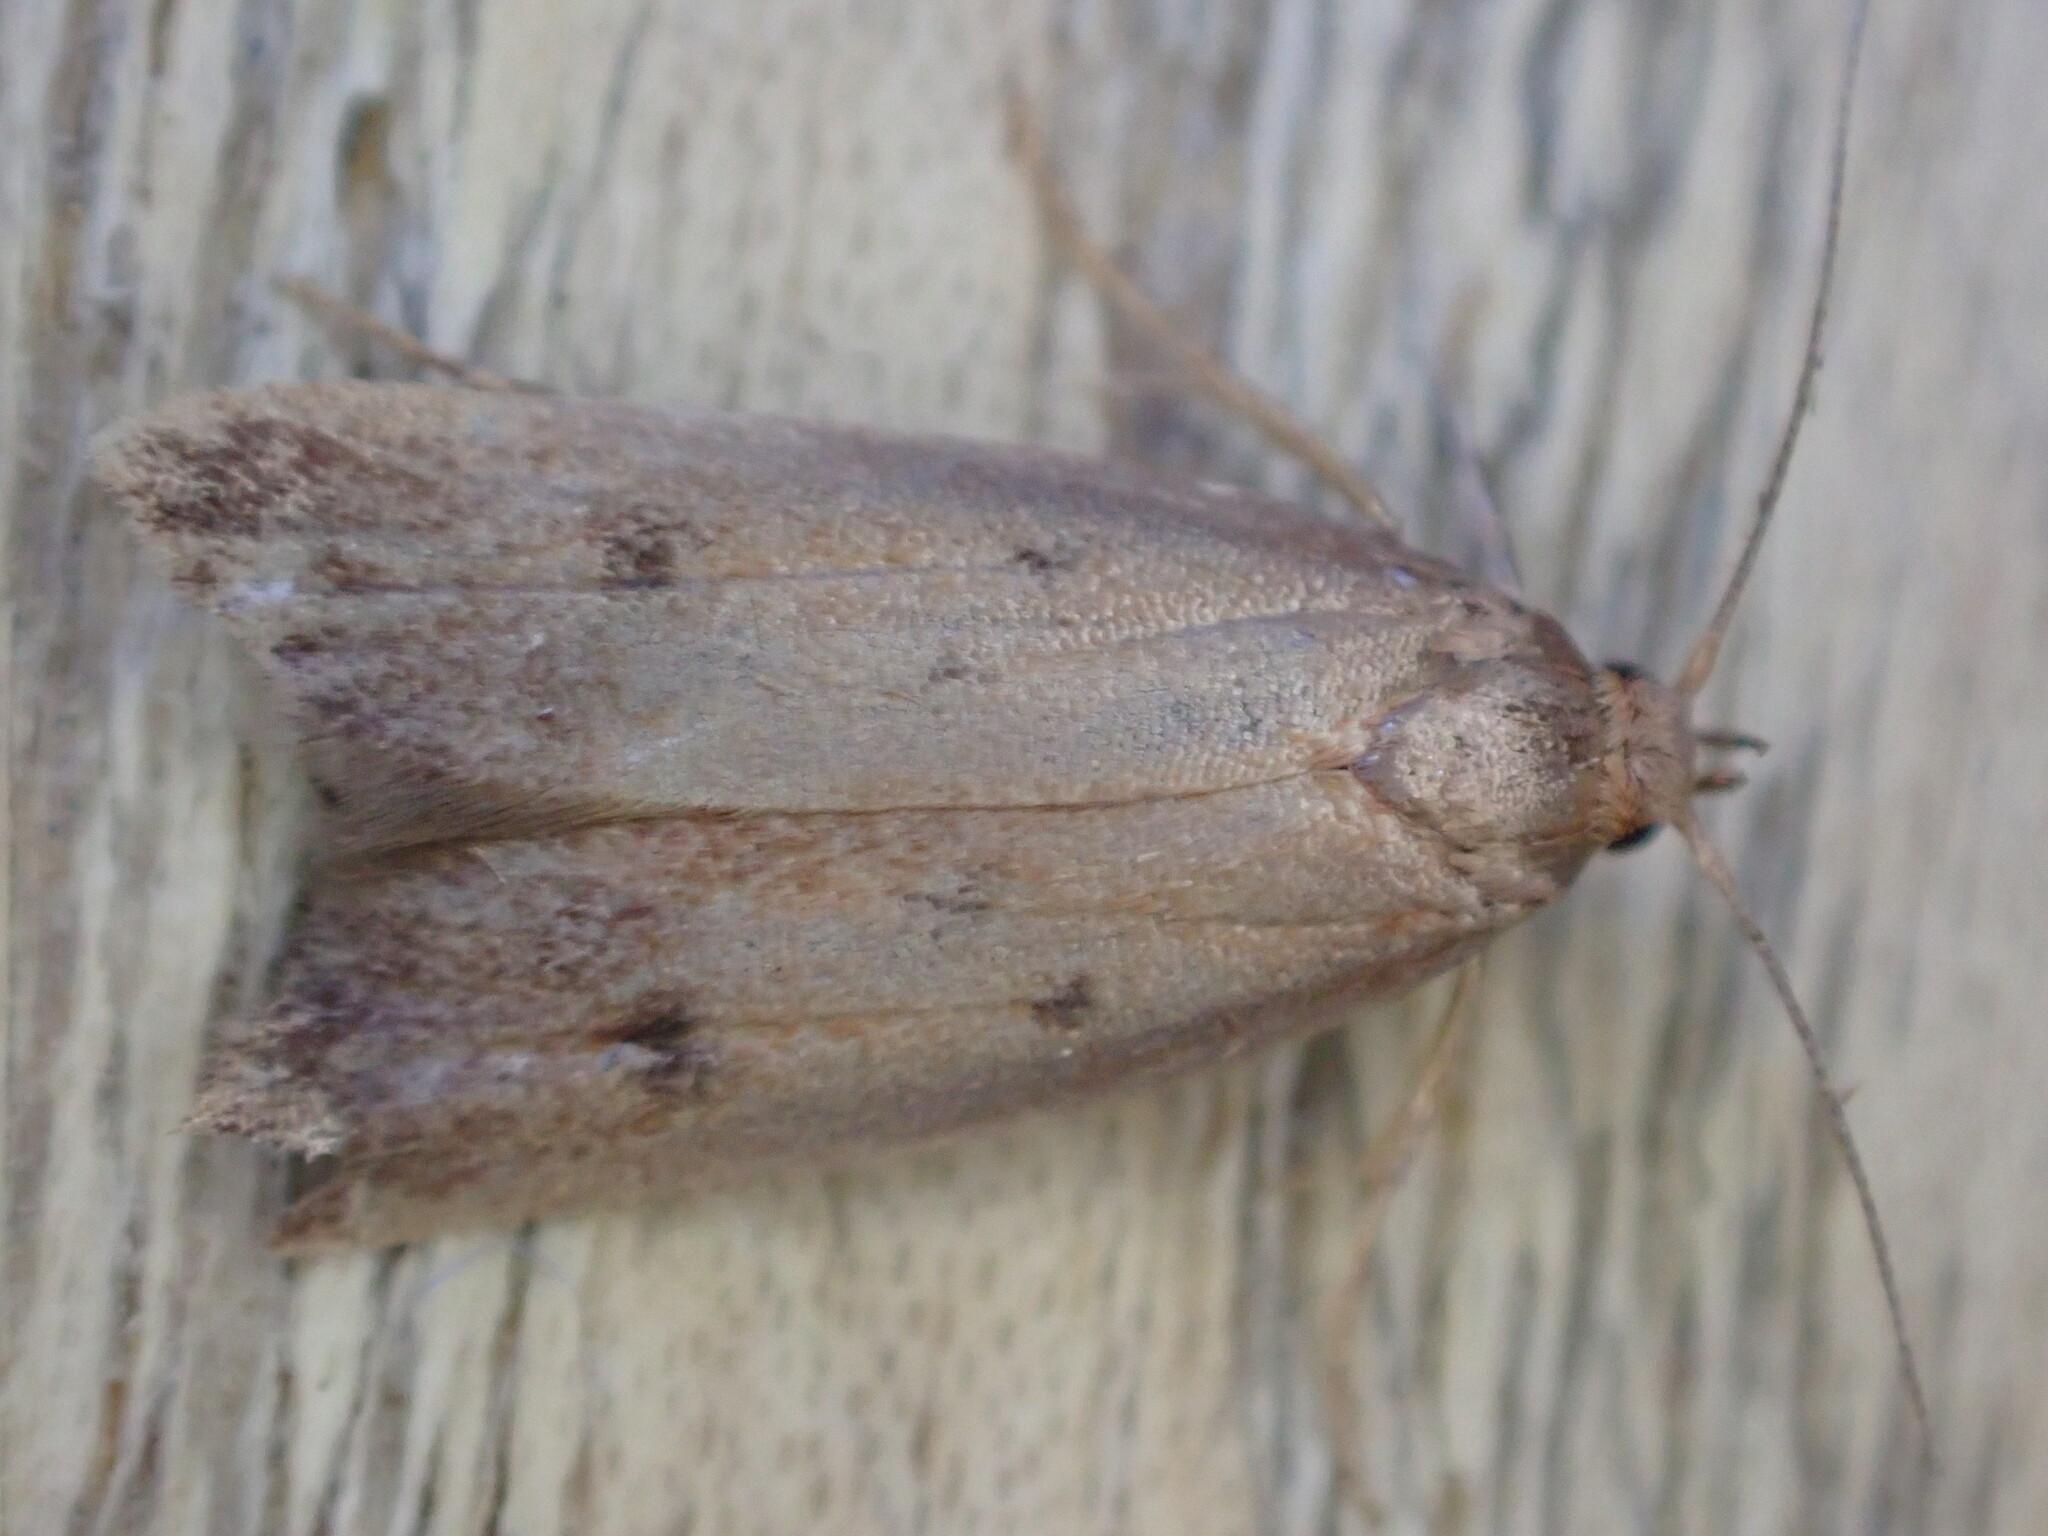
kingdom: Animalia
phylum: Arthropoda
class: Insecta
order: Lepidoptera
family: Oecophoridae
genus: Tachystola
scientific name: Tachystola acroxantha
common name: Ruddy streak
